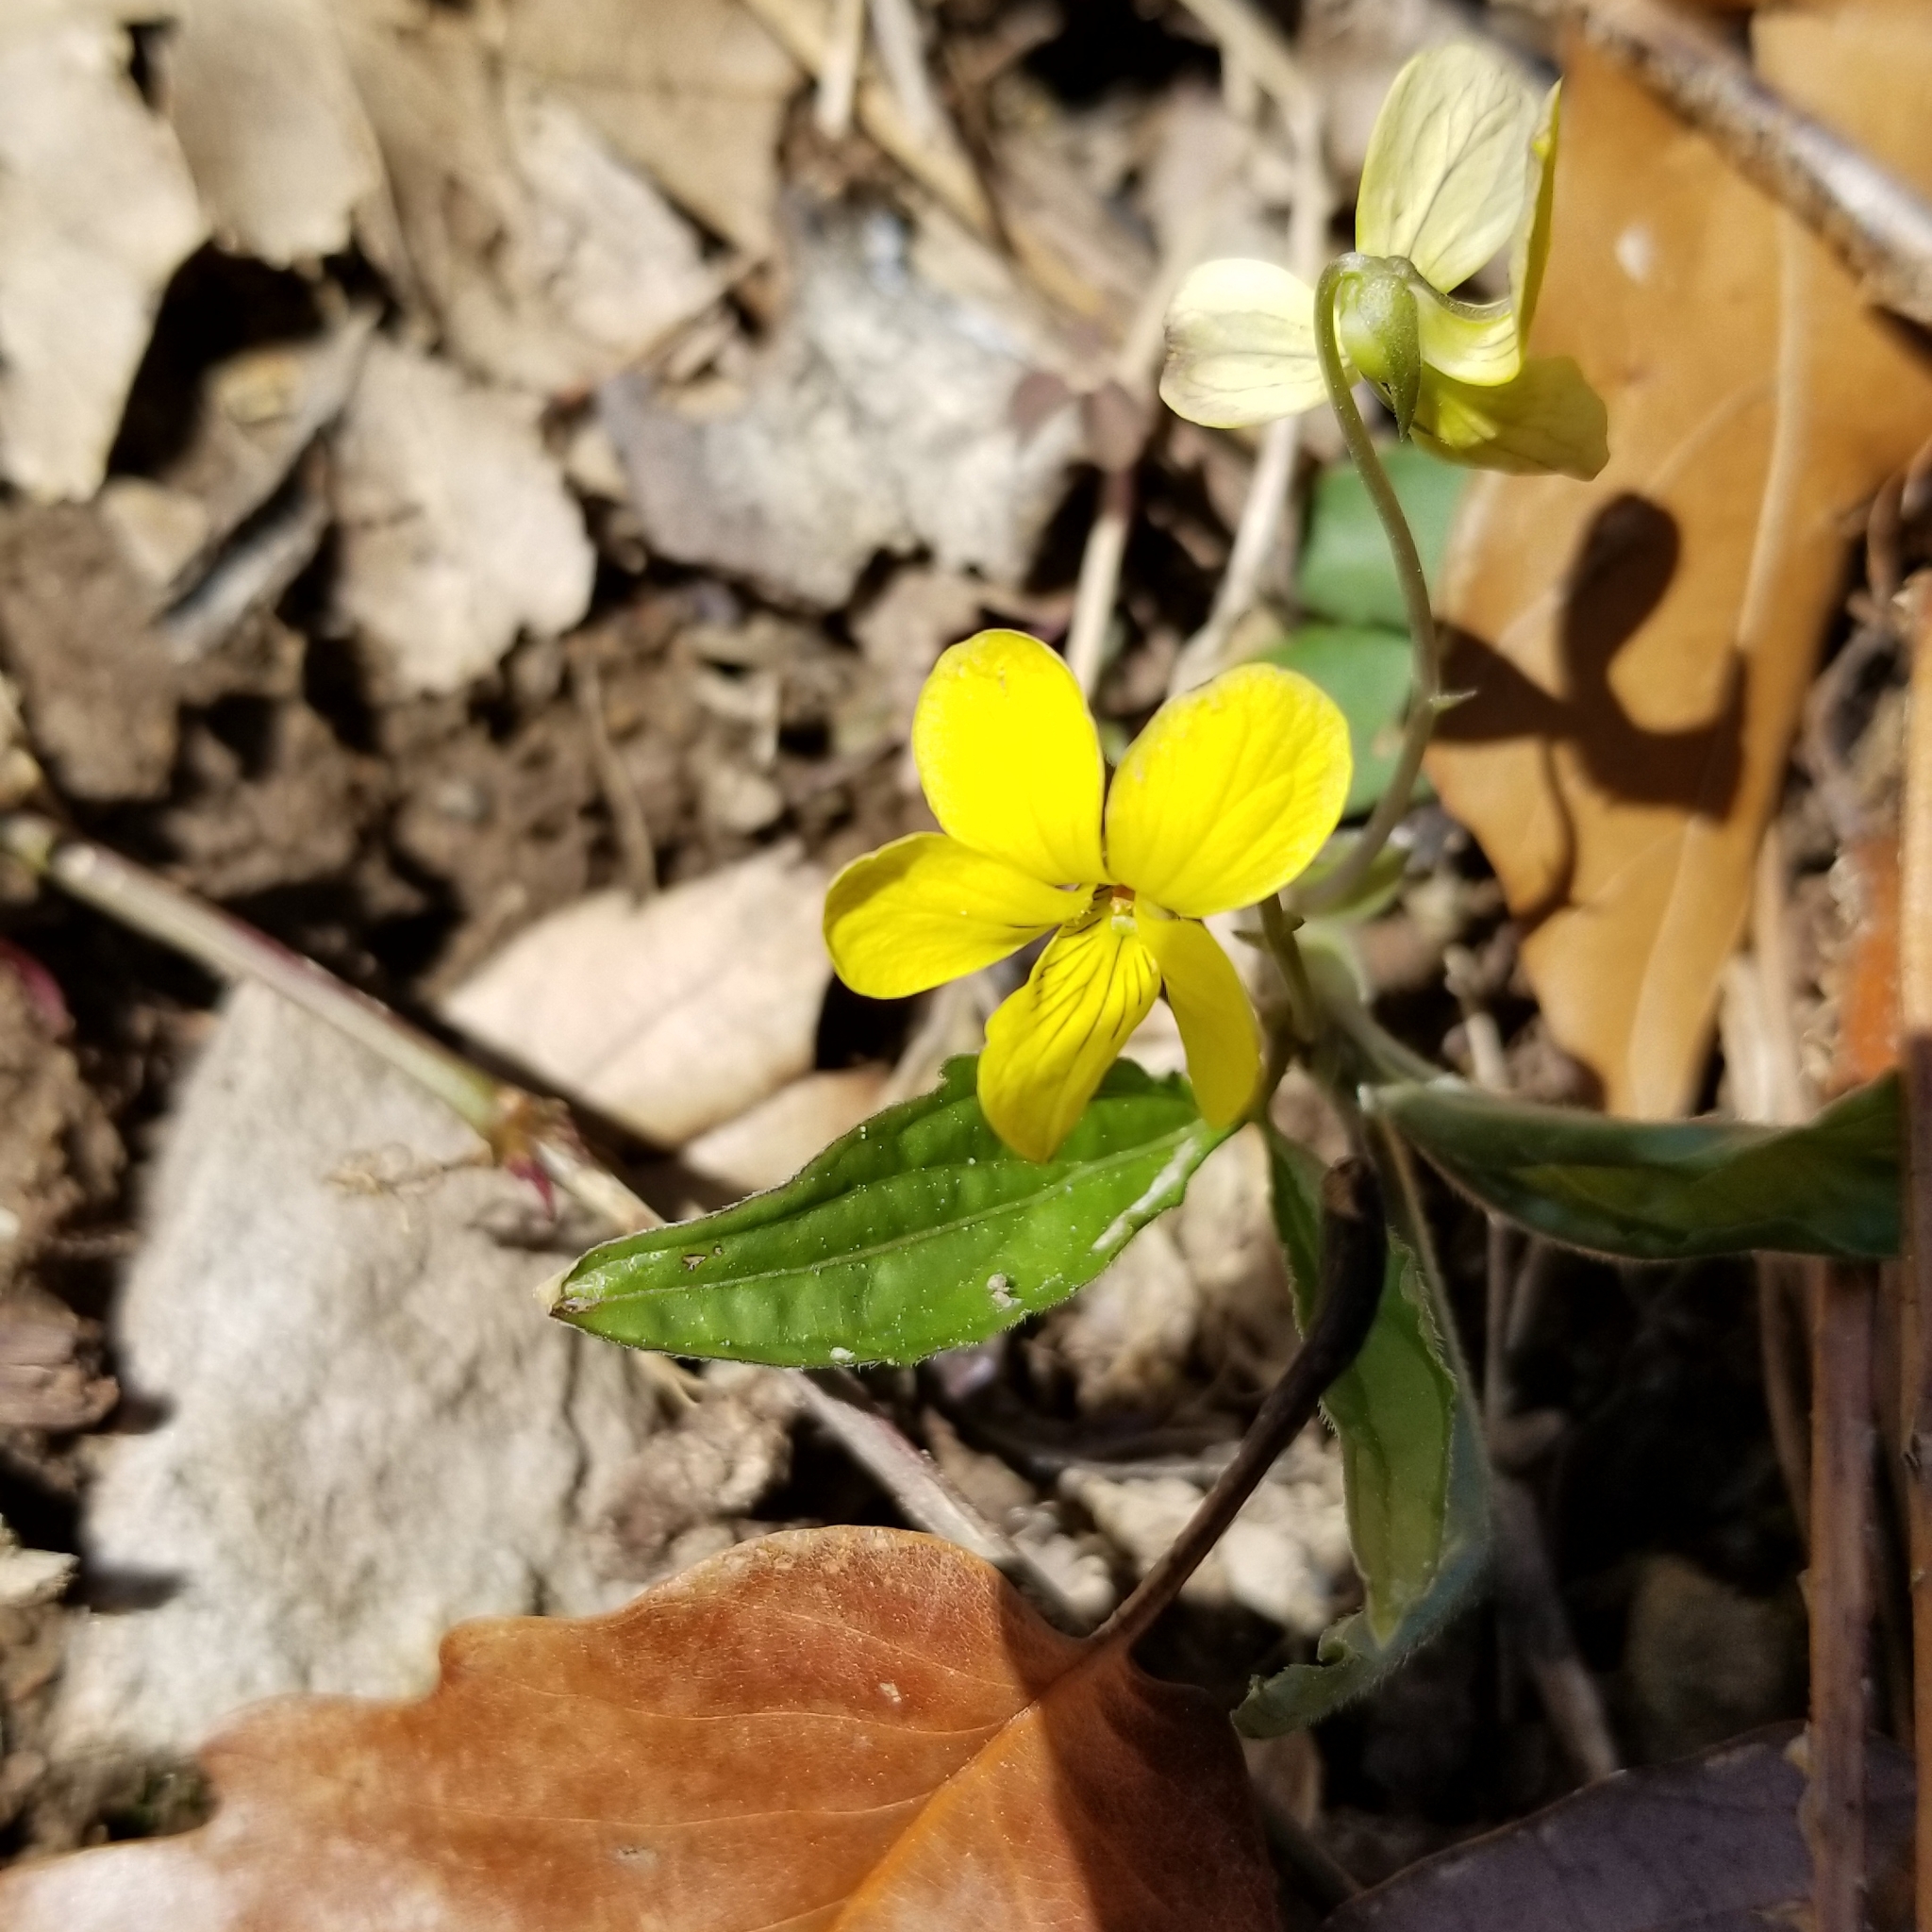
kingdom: Plantae
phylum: Tracheophyta
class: Magnoliopsida
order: Malpighiales
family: Violaceae
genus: Viola
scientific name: Viola tripartita
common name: Three-part violet
